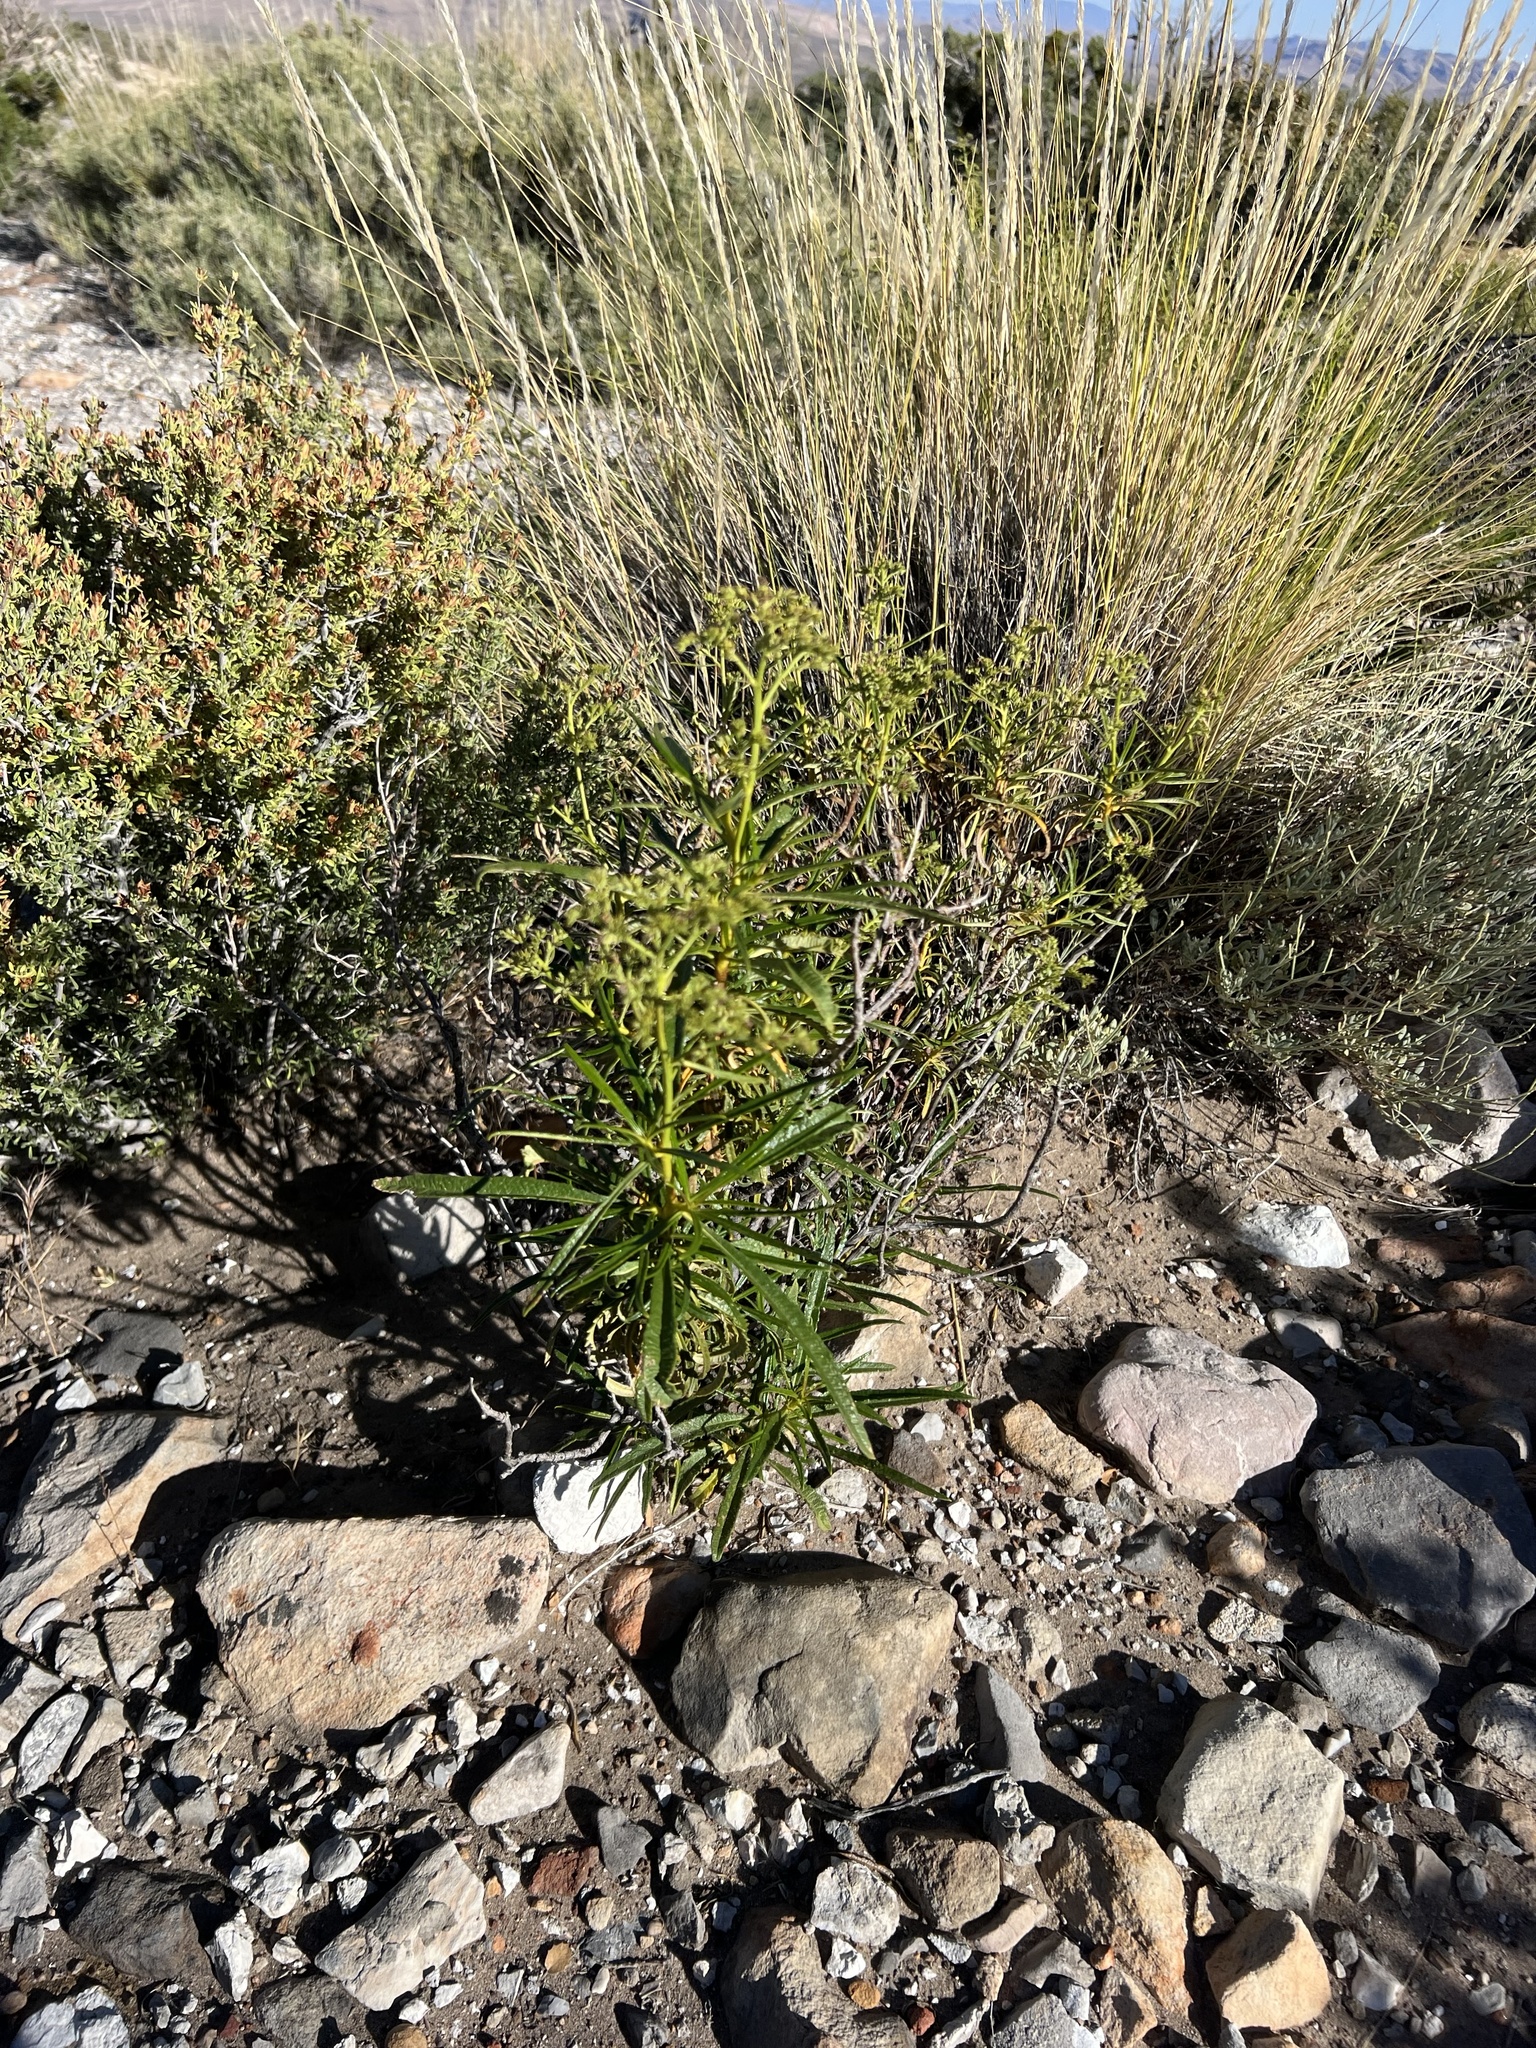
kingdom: Plantae
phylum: Tracheophyta
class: Magnoliopsida
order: Boraginales
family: Namaceae
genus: Eriodictyon
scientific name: Eriodictyon angustifolium
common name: Narrow-leaf yerba santa
